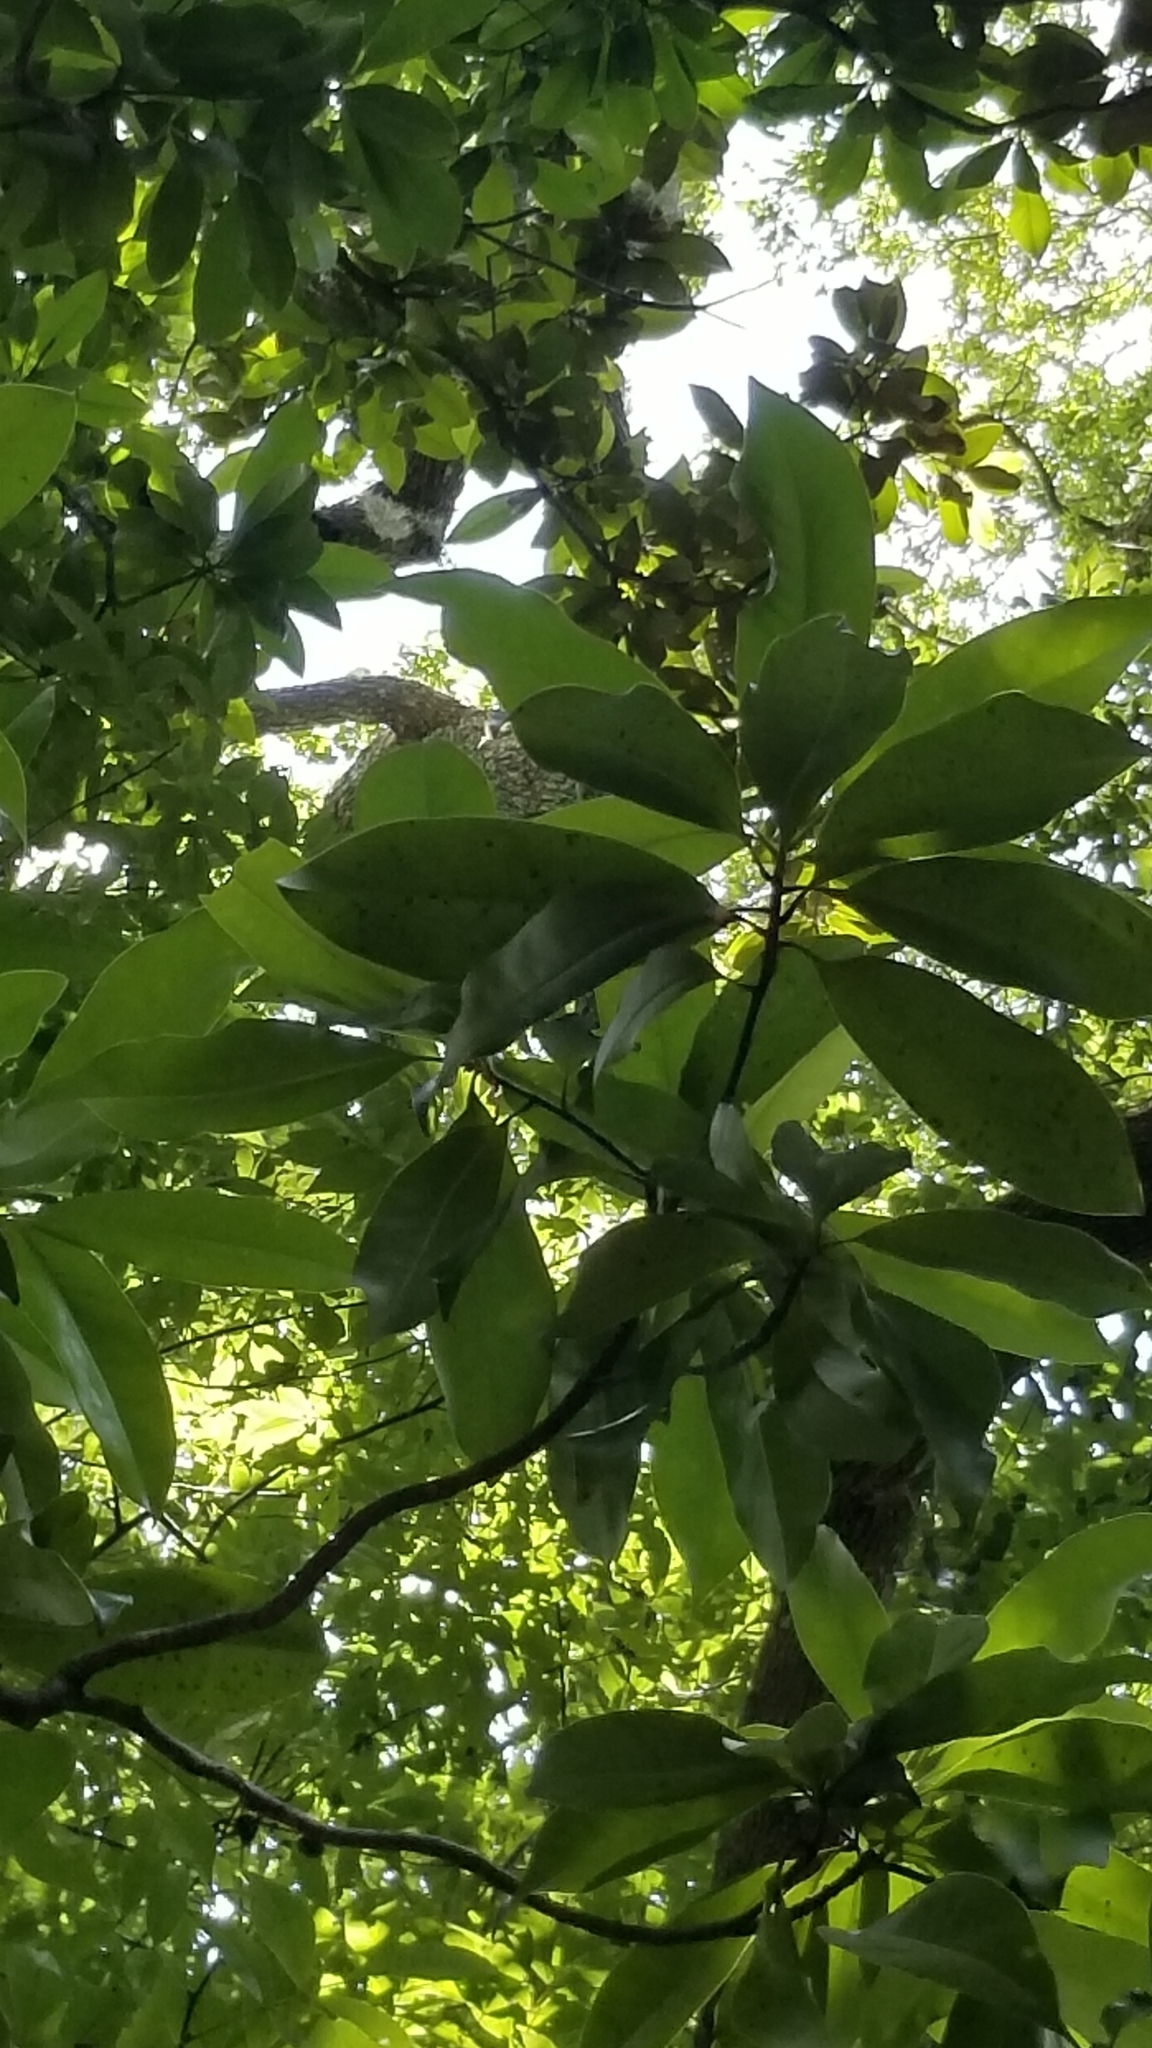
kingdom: Plantae
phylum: Tracheophyta
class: Magnoliopsida
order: Magnoliales
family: Magnoliaceae
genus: Magnolia
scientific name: Magnolia grandiflora
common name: Southern magnolia
